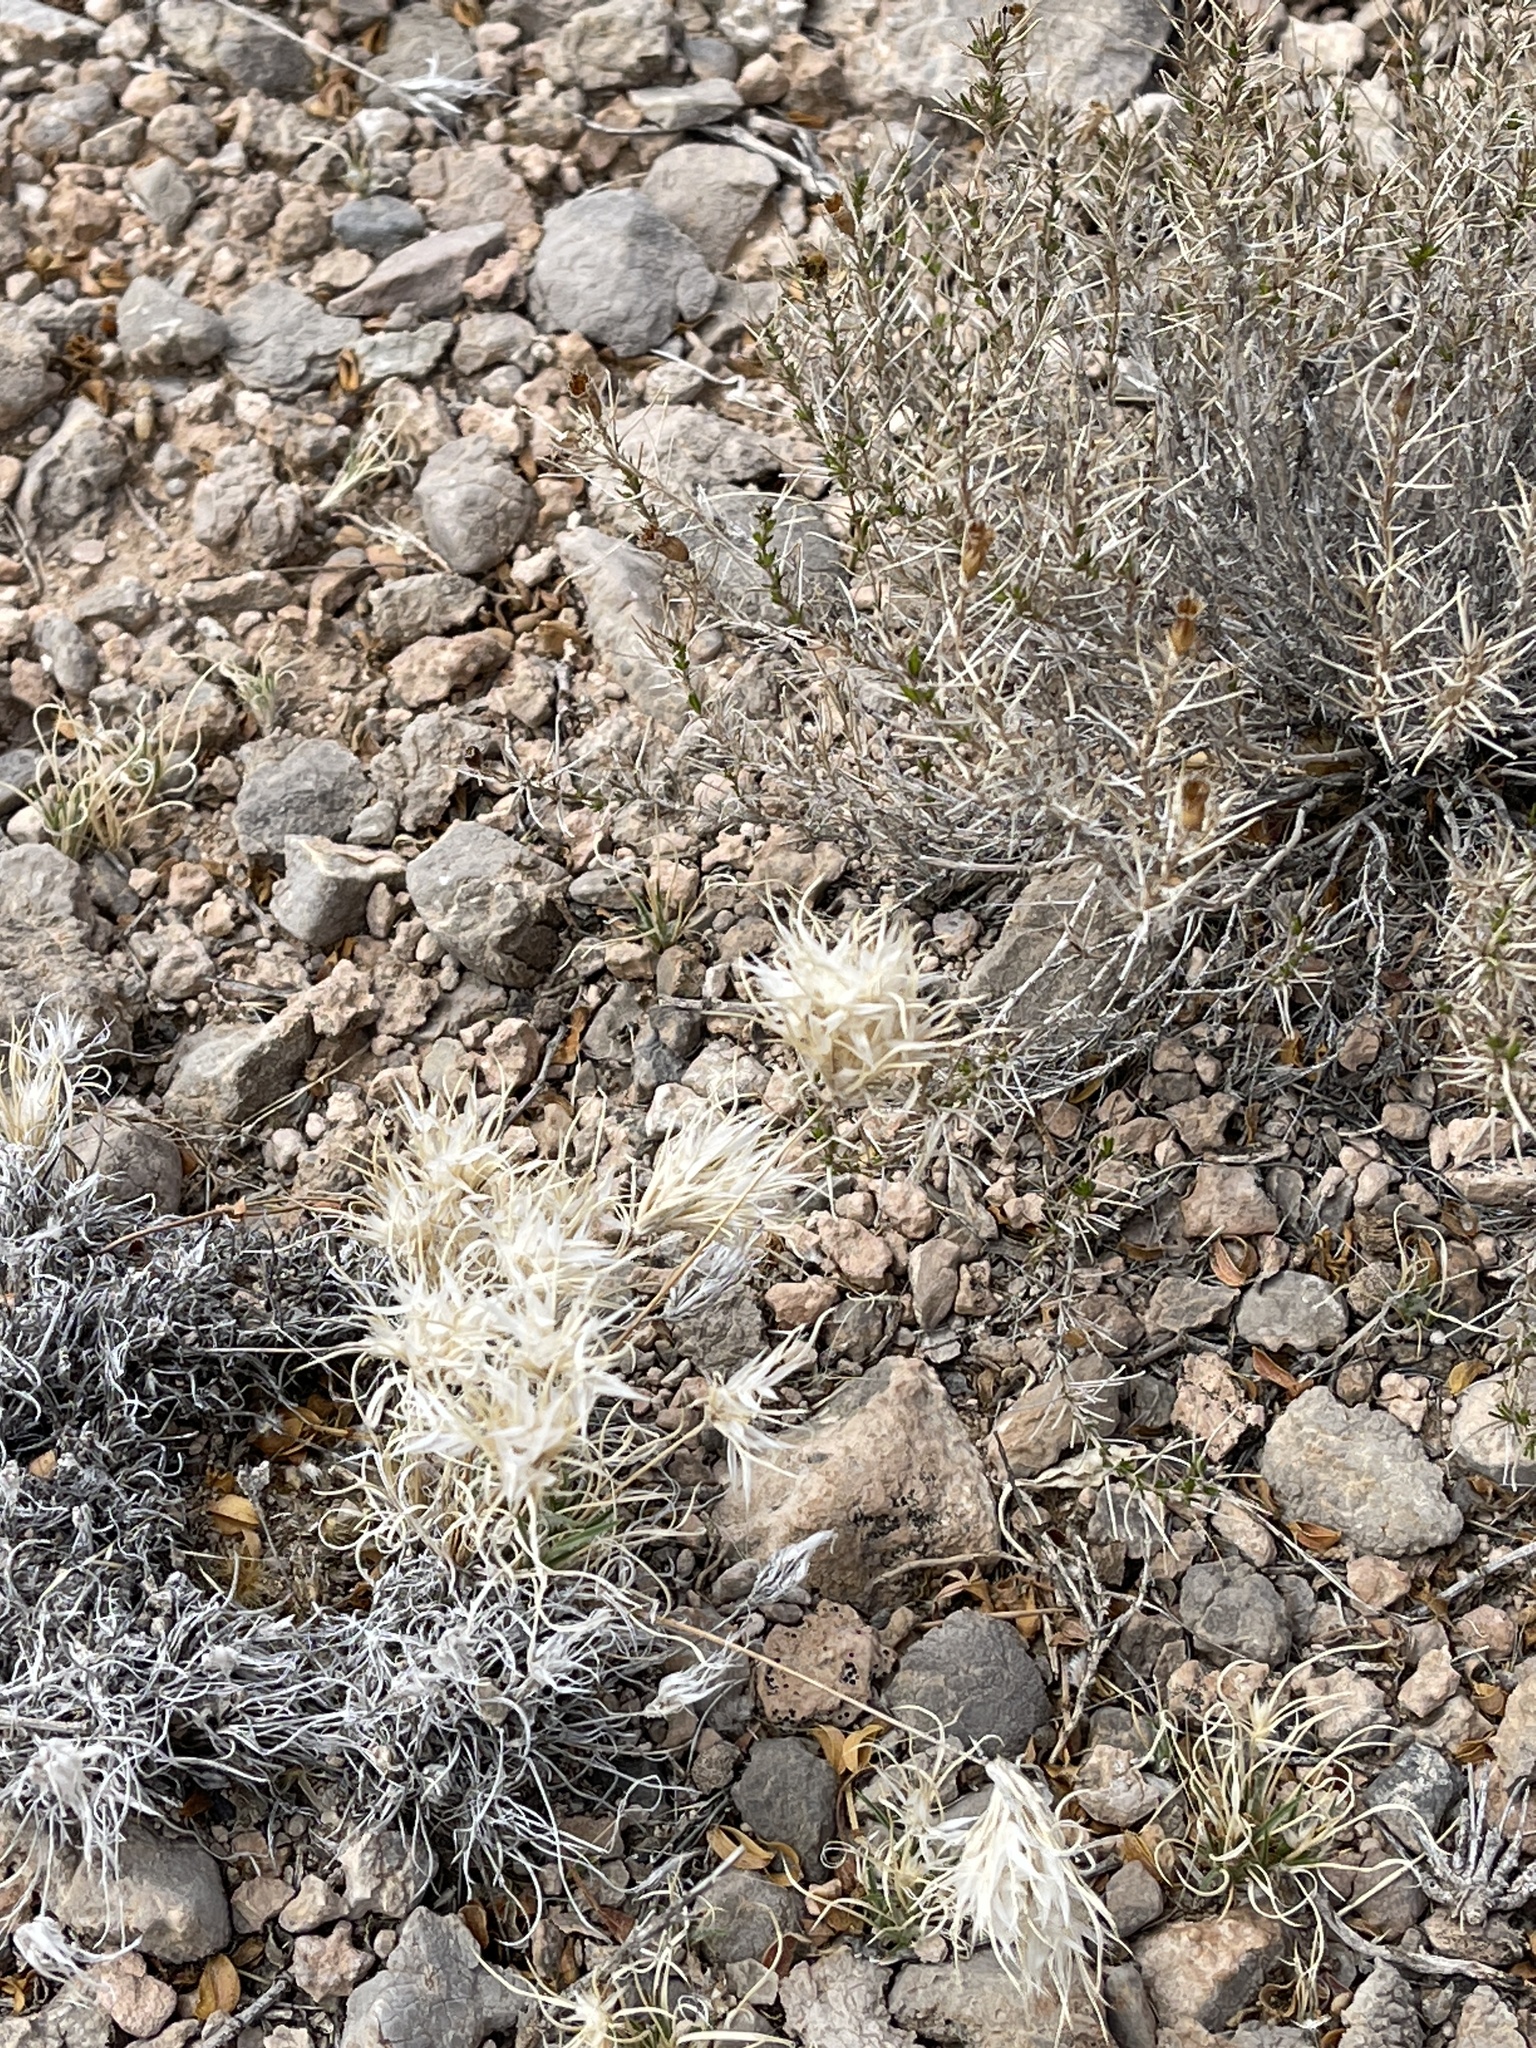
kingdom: Plantae
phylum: Tracheophyta
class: Liliopsida
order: Poales
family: Poaceae
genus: Dasyochloa
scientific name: Dasyochloa pulchella
